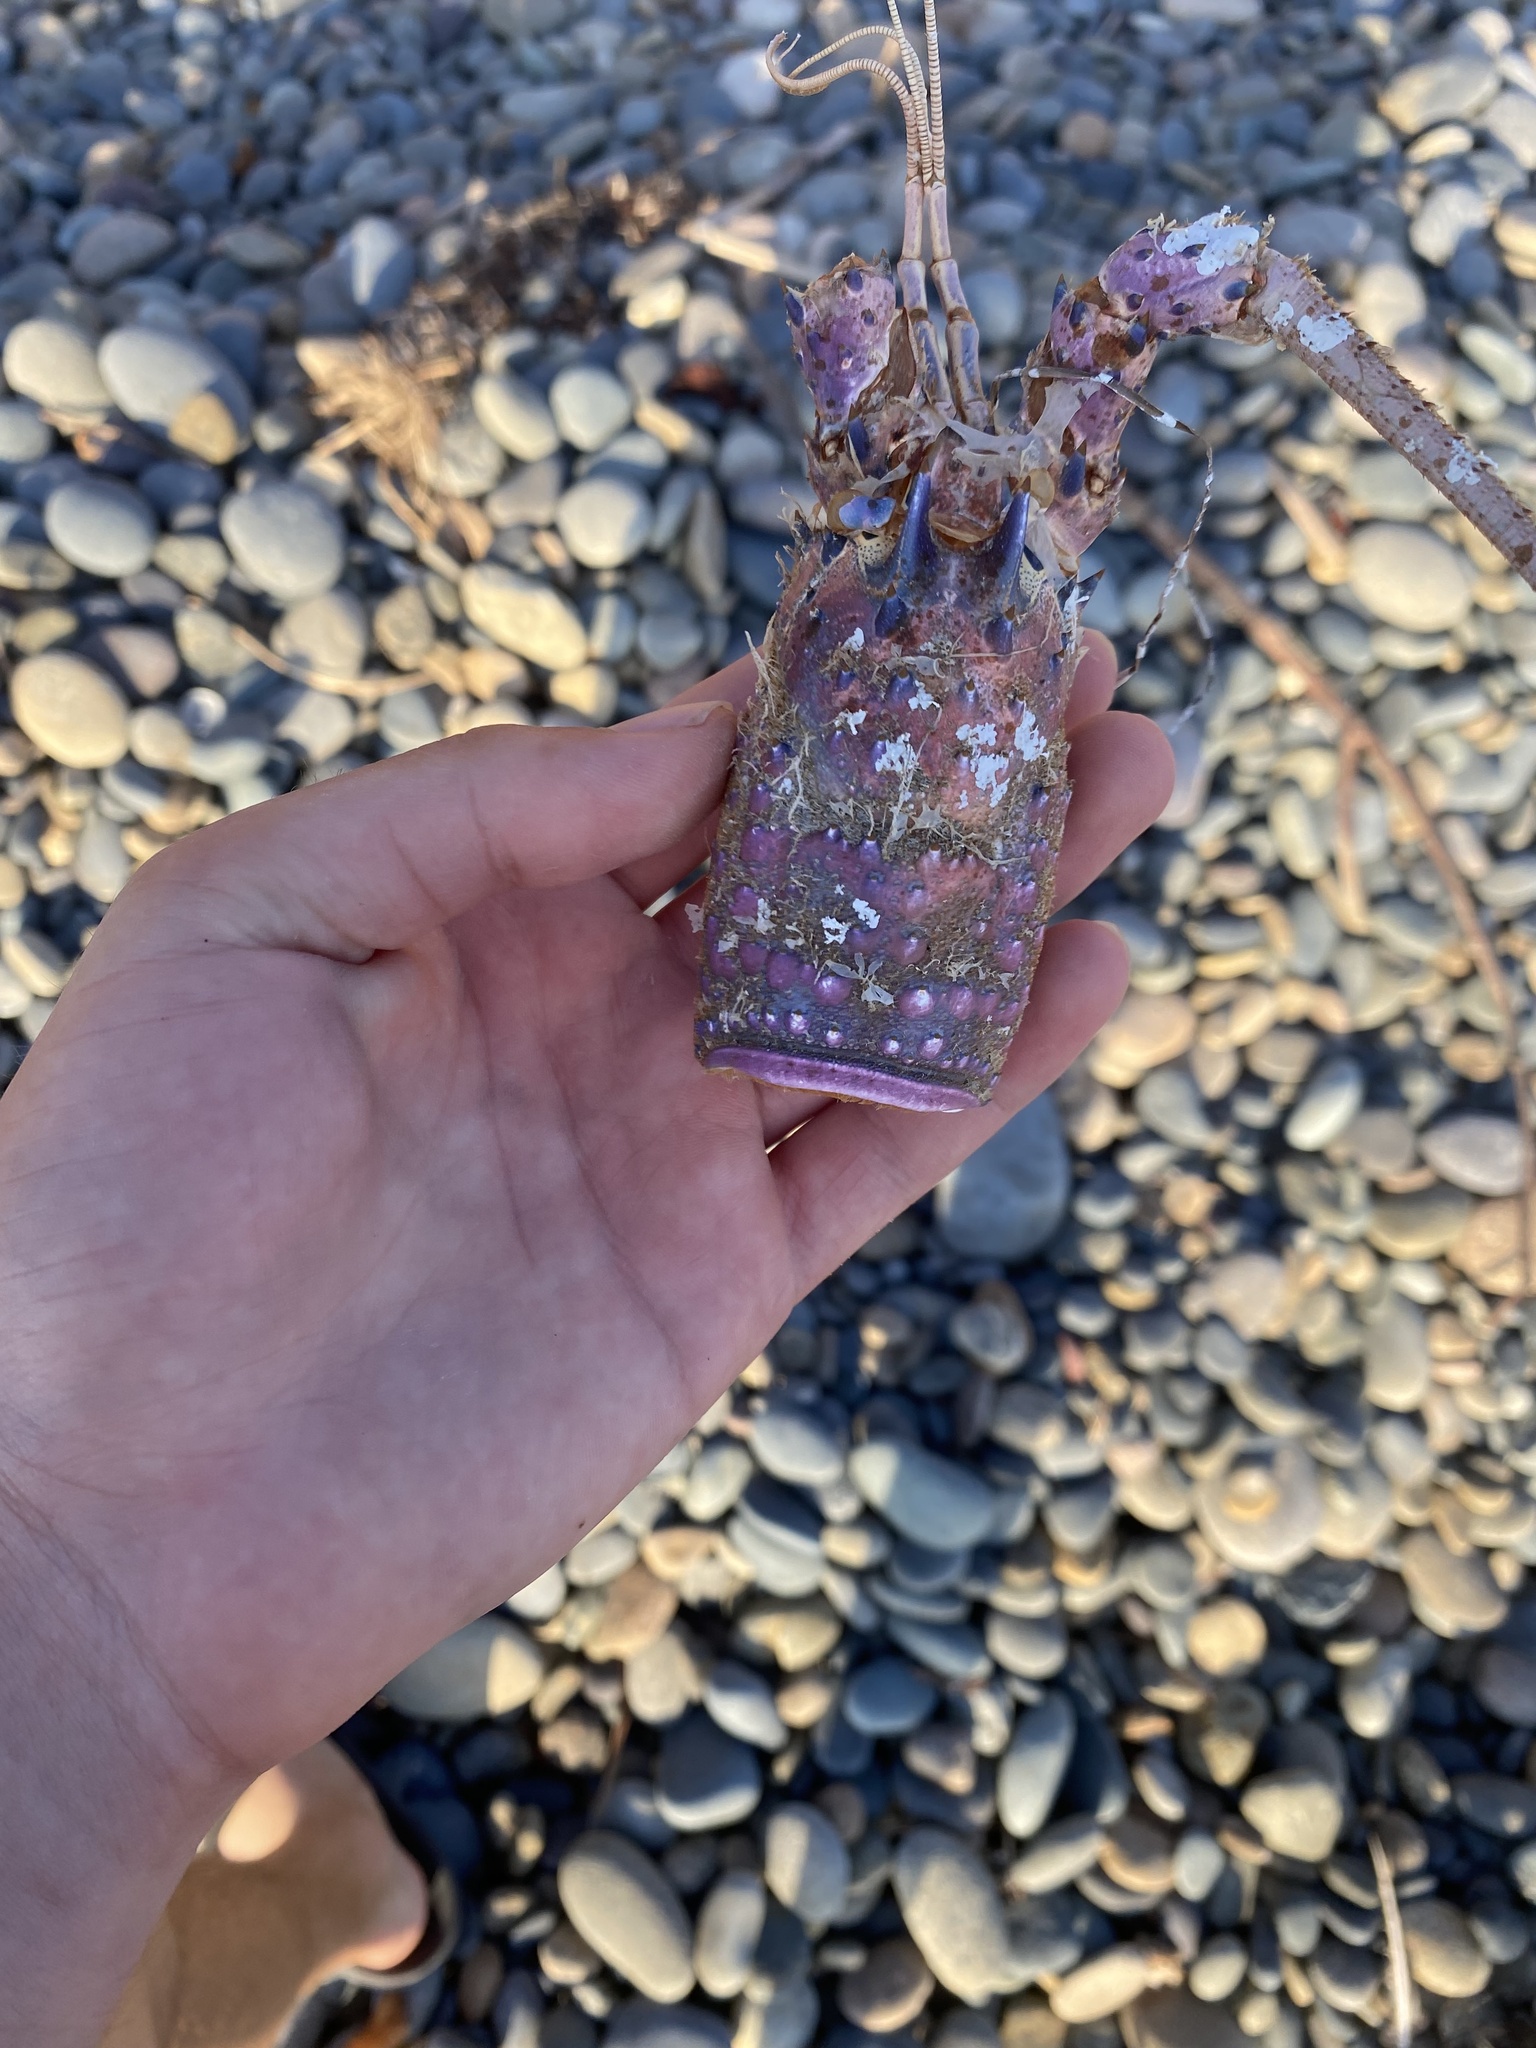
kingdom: Animalia
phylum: Arthropoda
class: Malacostraca
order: Decapoda
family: Palinuridae
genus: Panulirus
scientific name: Panulirus interruptus
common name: California spiny lobster
